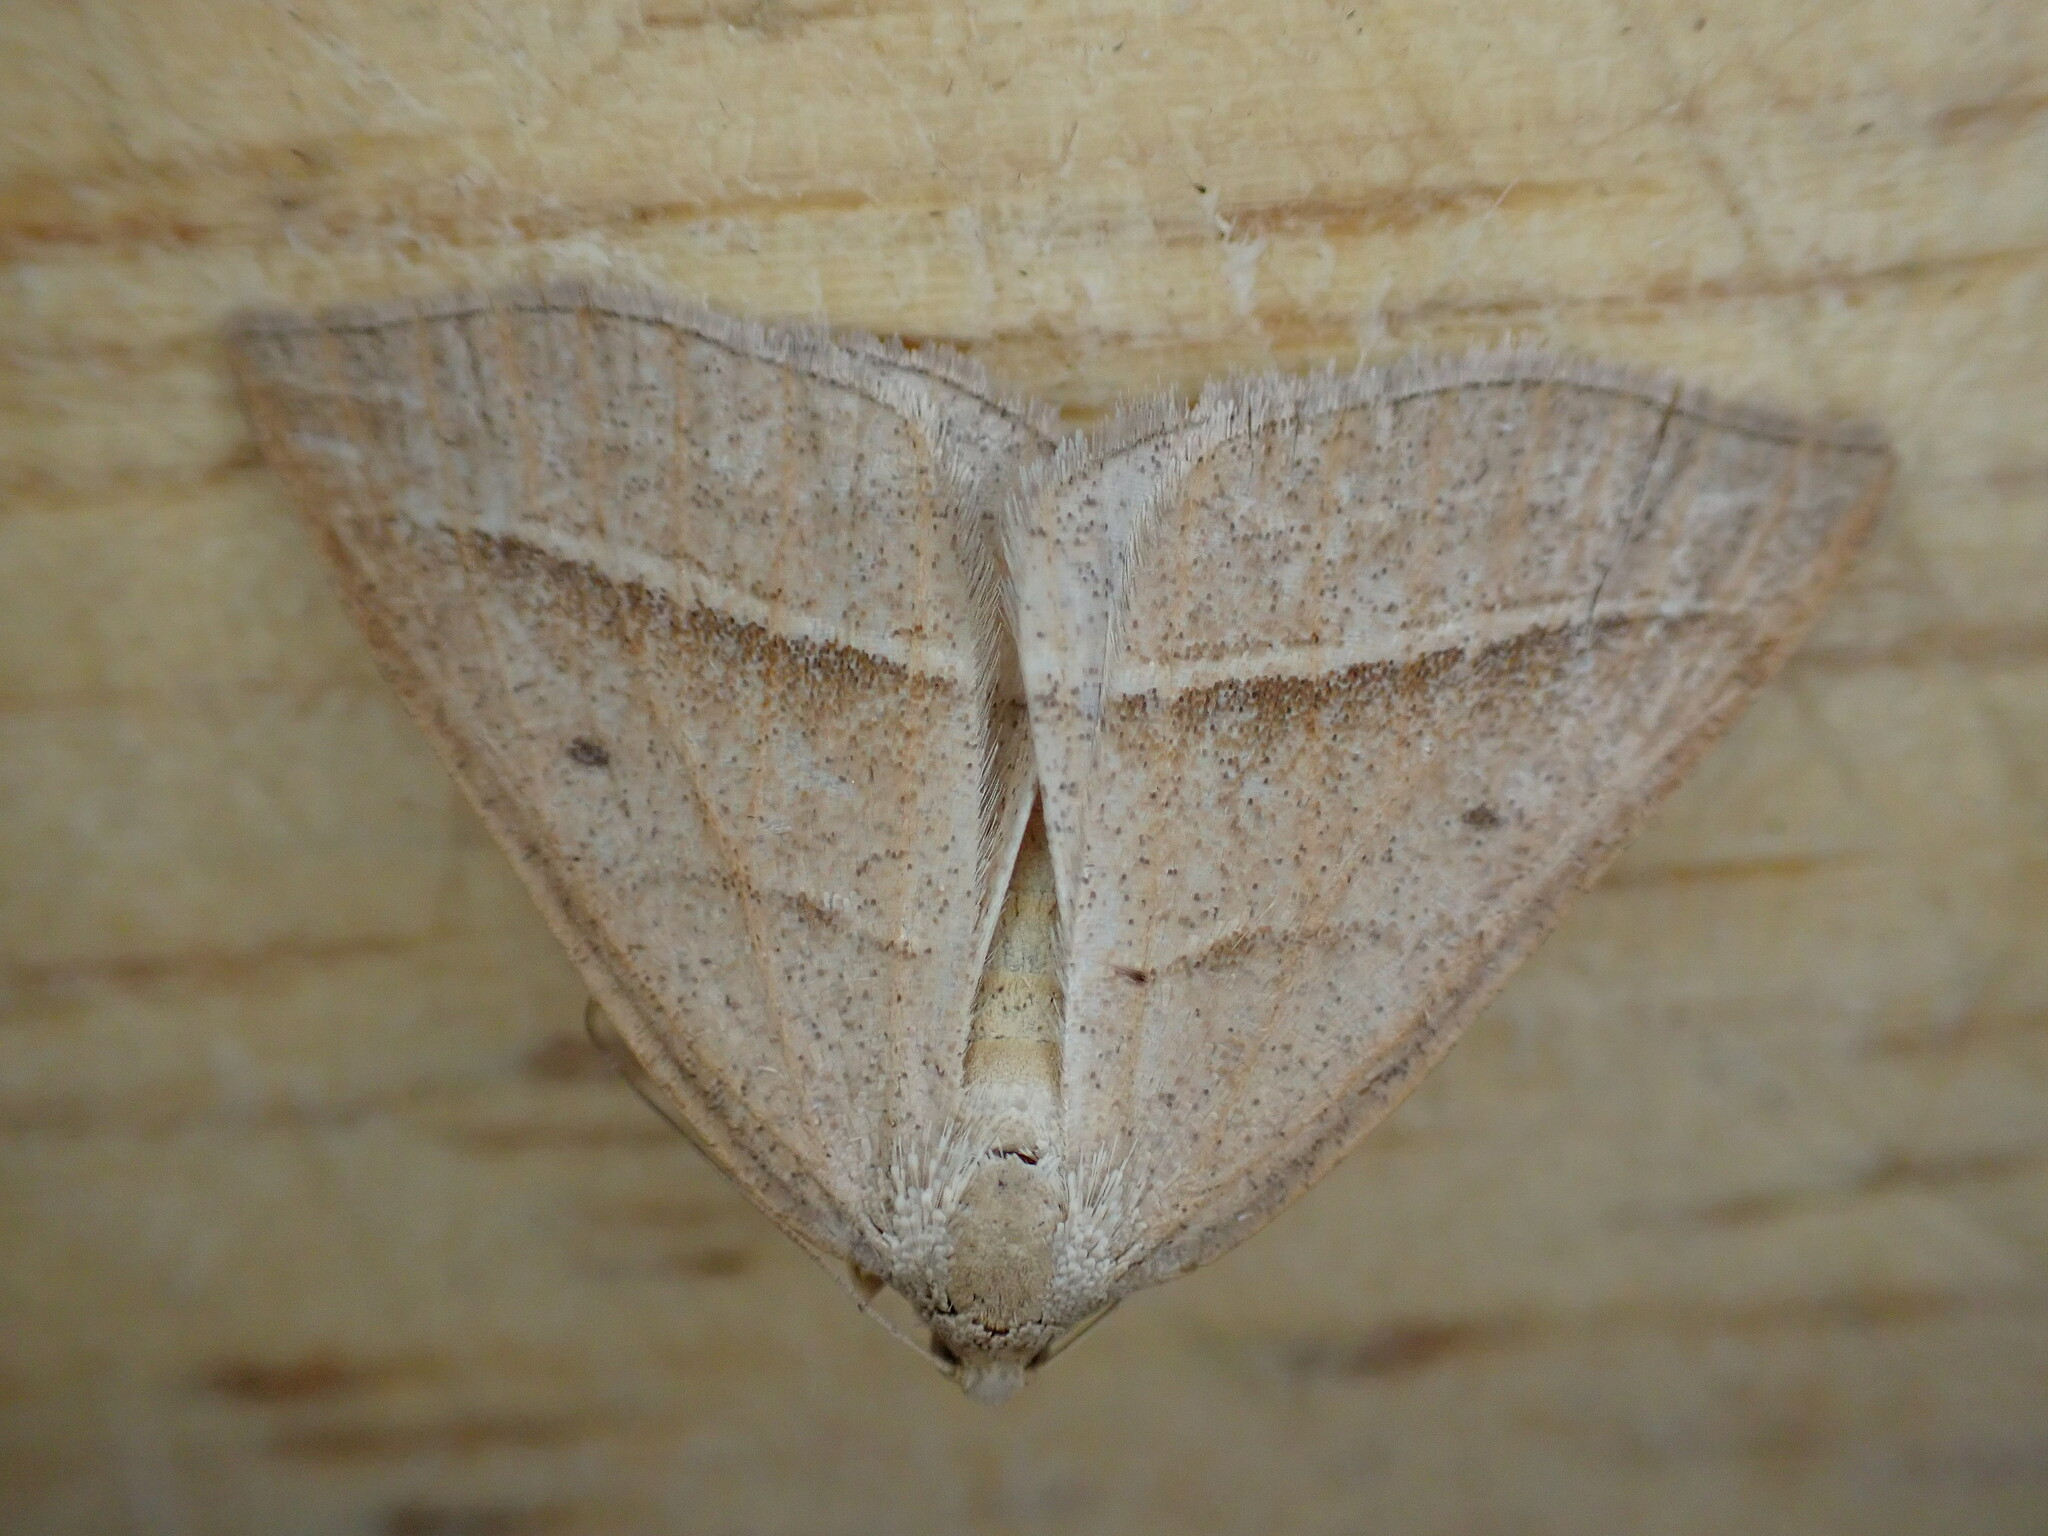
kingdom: Animalia
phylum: Arthropoda
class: Insecta
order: Lepidoptera
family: Pterophoridae
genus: Pterophorus
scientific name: Pterophorus Petrophora chlorosata
